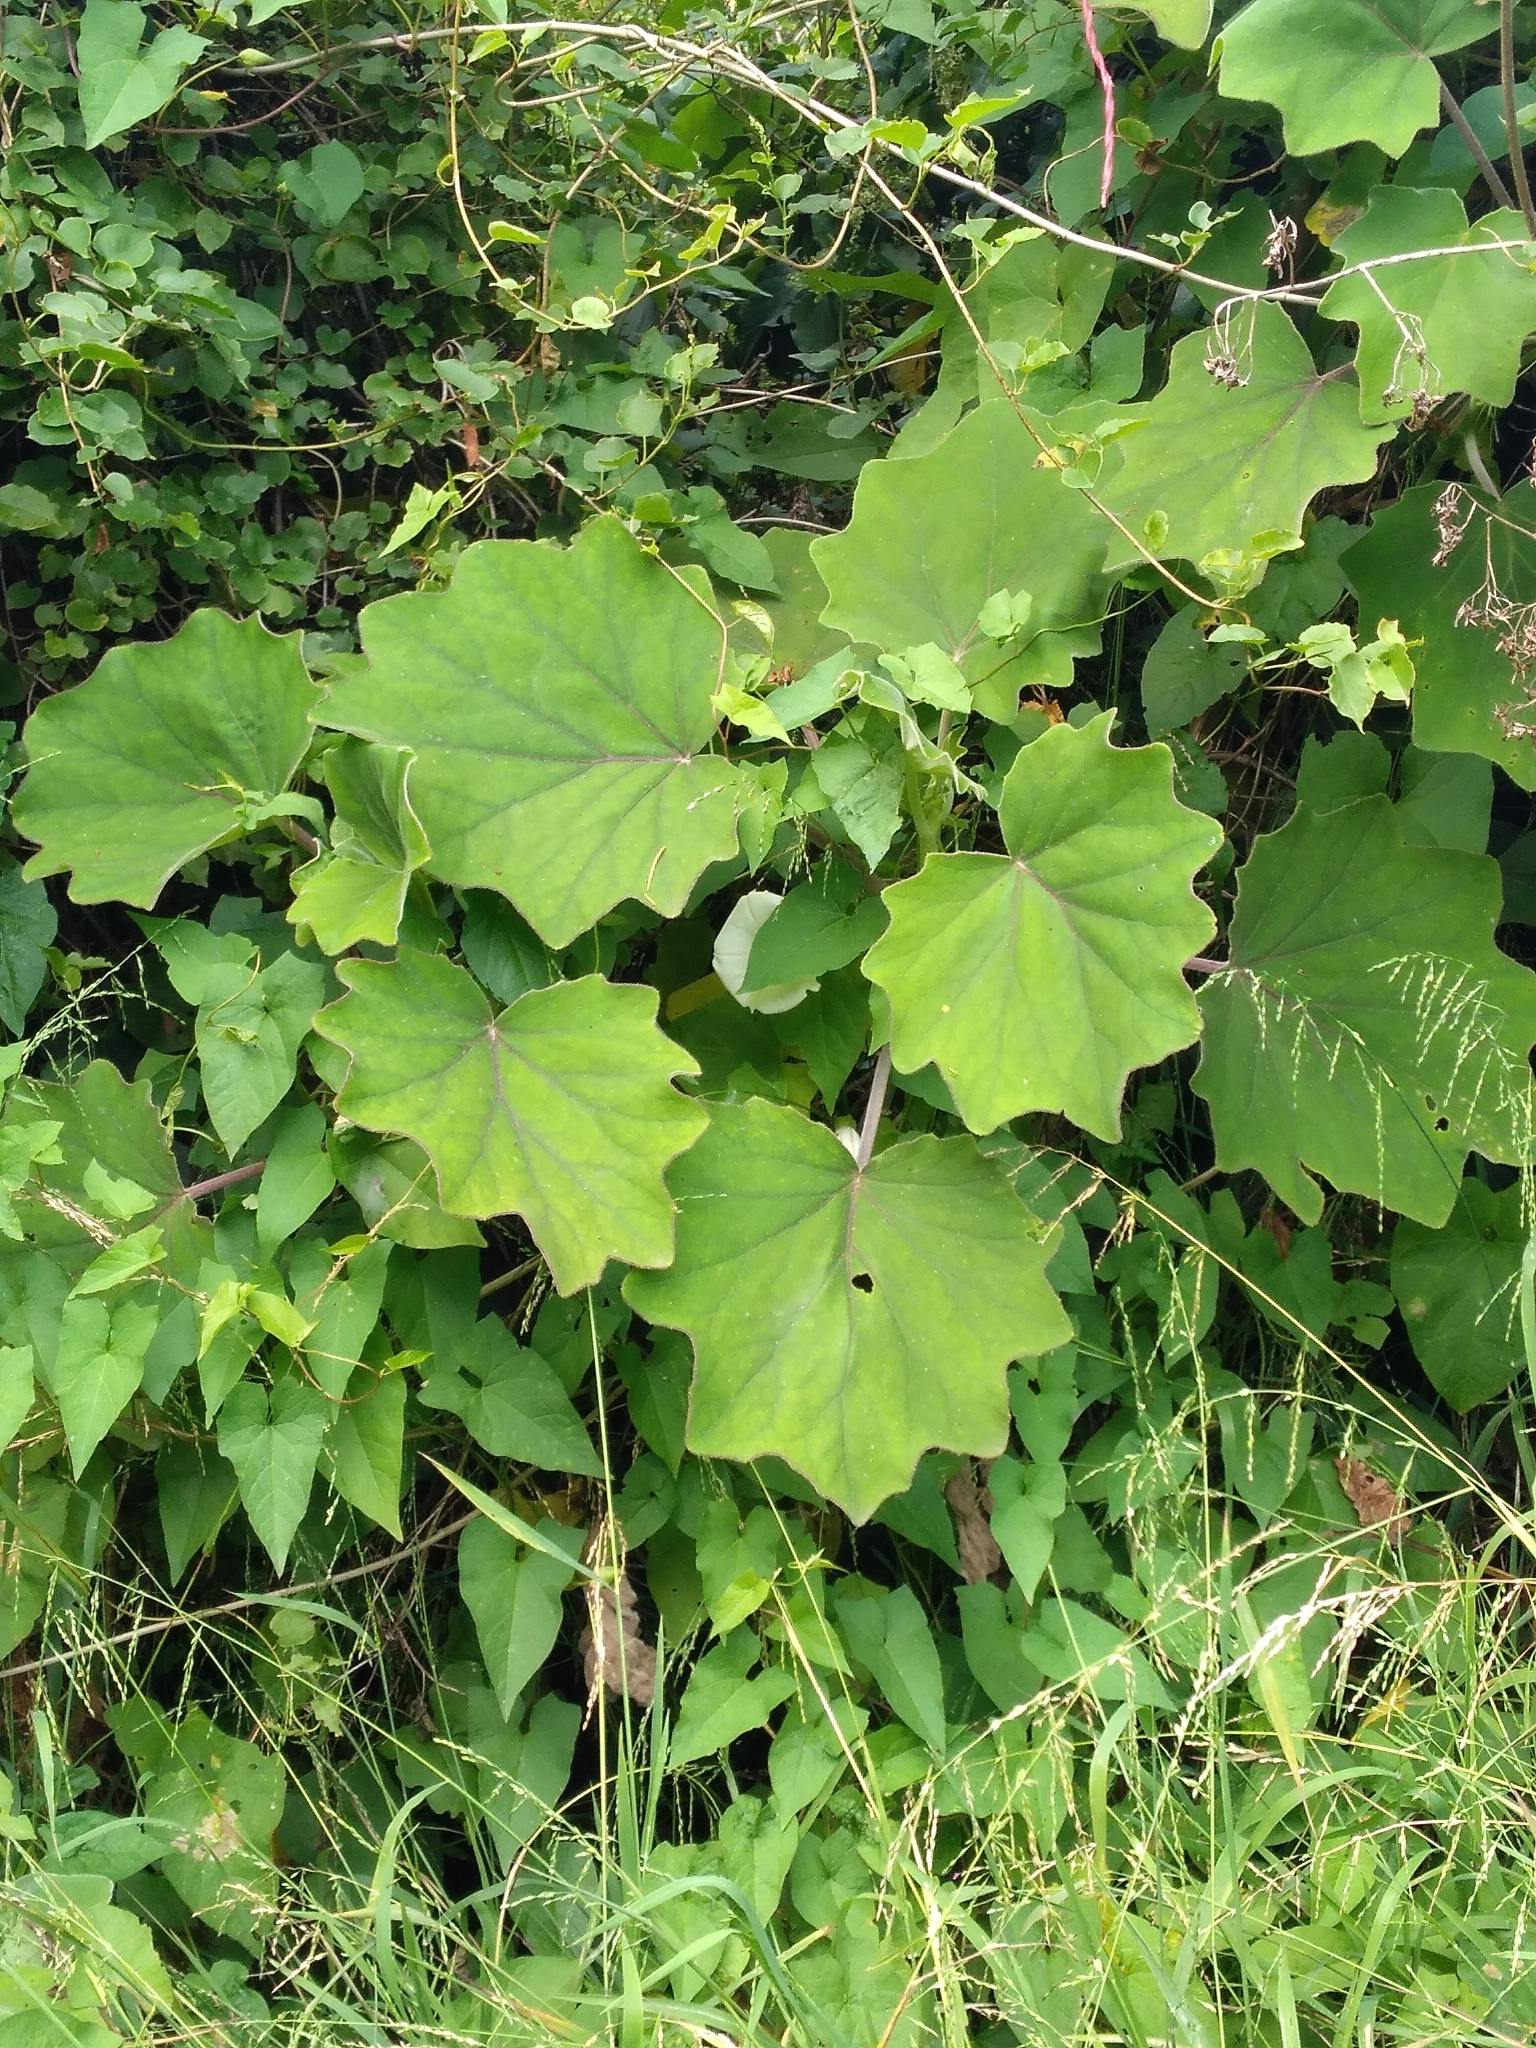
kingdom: Plantae
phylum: Tracheophyta
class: Magnoliopsida
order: Asterales
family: Asteraceae
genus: Roldana
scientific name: Roldana petasitis
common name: California-geranium
